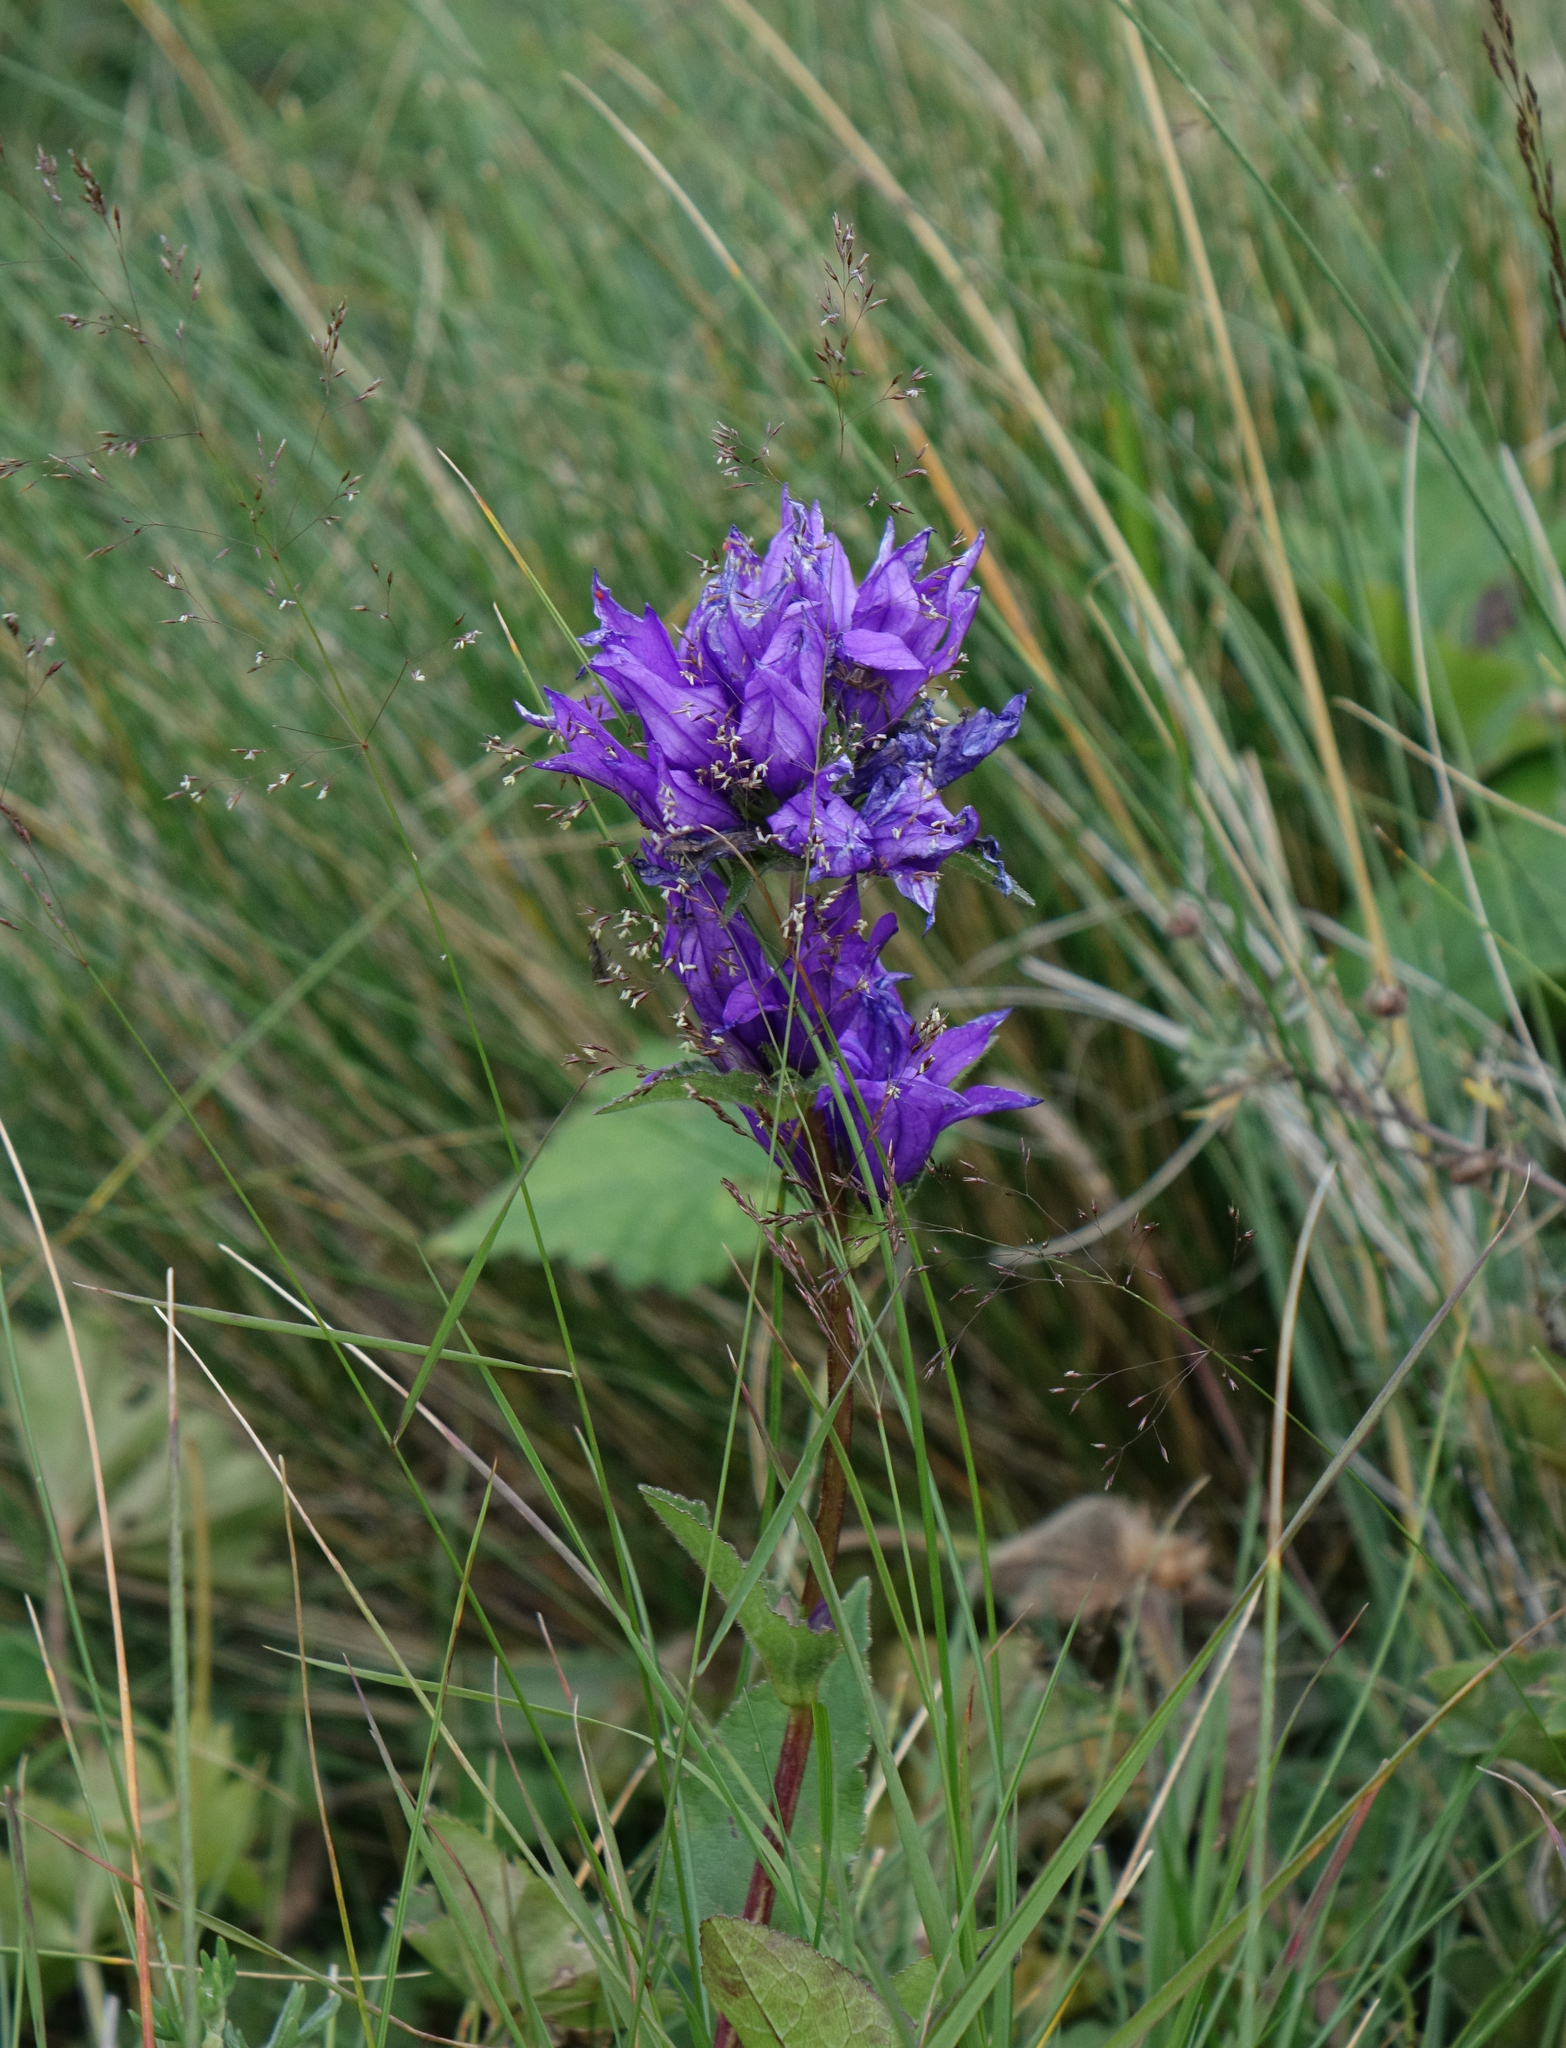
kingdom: Plantae
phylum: Tracheophyta
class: Magnoliopsida
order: Asterales
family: Campanulaceae
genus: Campanula
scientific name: Campanula glomerata
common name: Clustered bellflower
